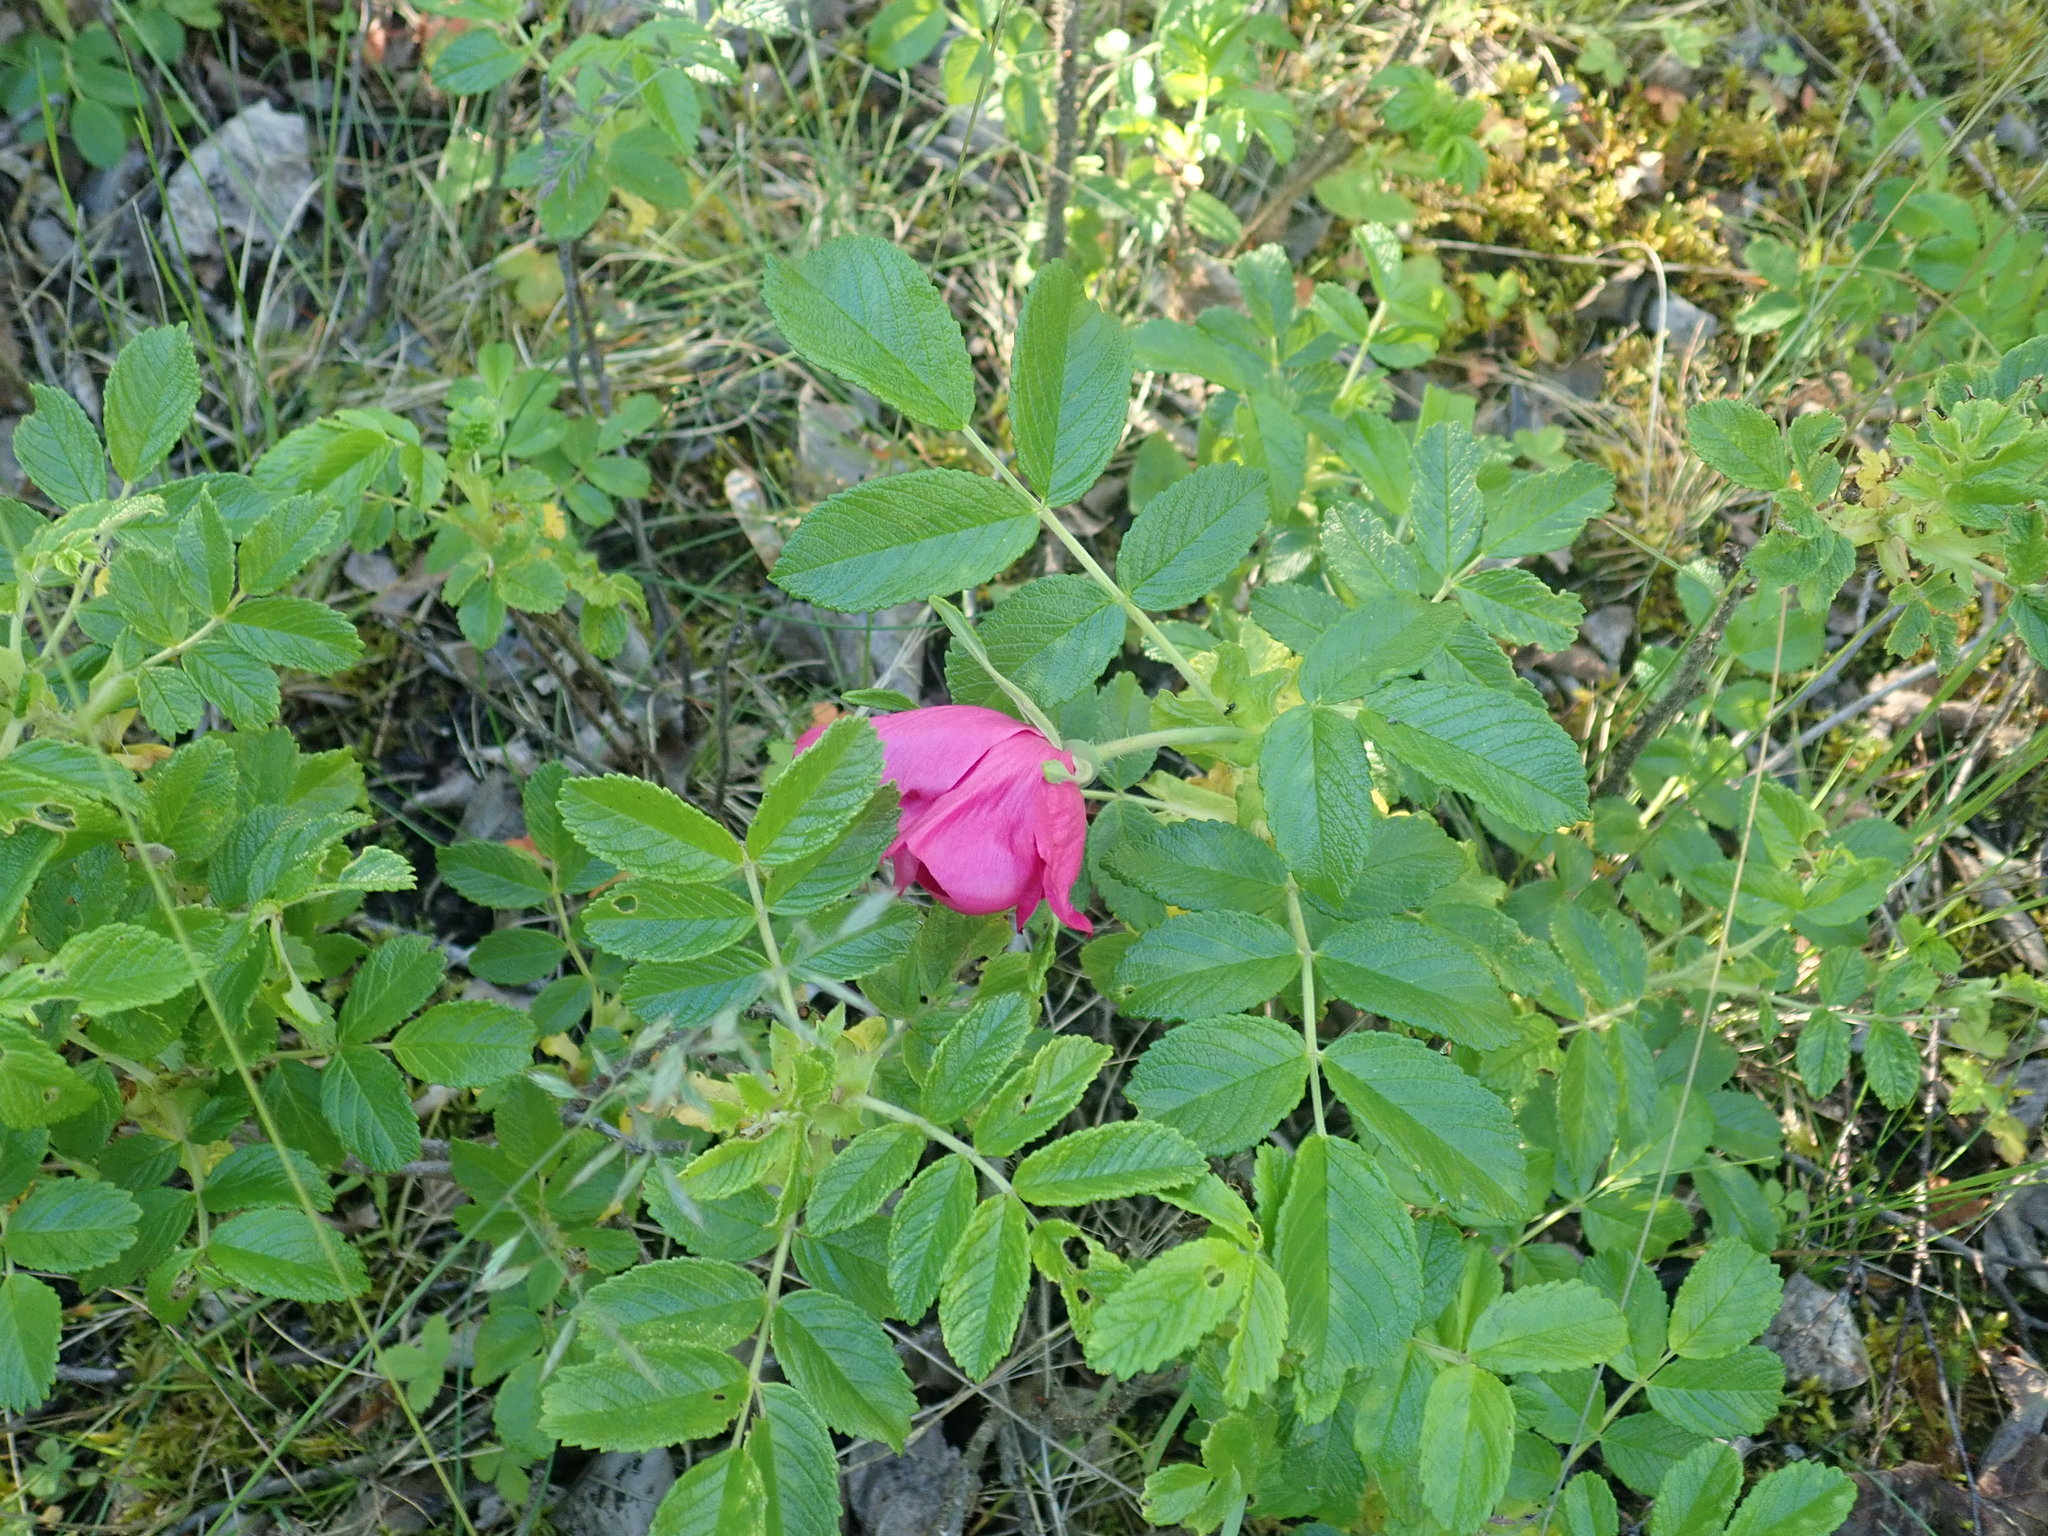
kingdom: Plantae
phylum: Tracheophyta
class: Magnoliopsida
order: Rosales
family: Rosaceae
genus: Rosa
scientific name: Rosa rugosa
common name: Japanese rose
